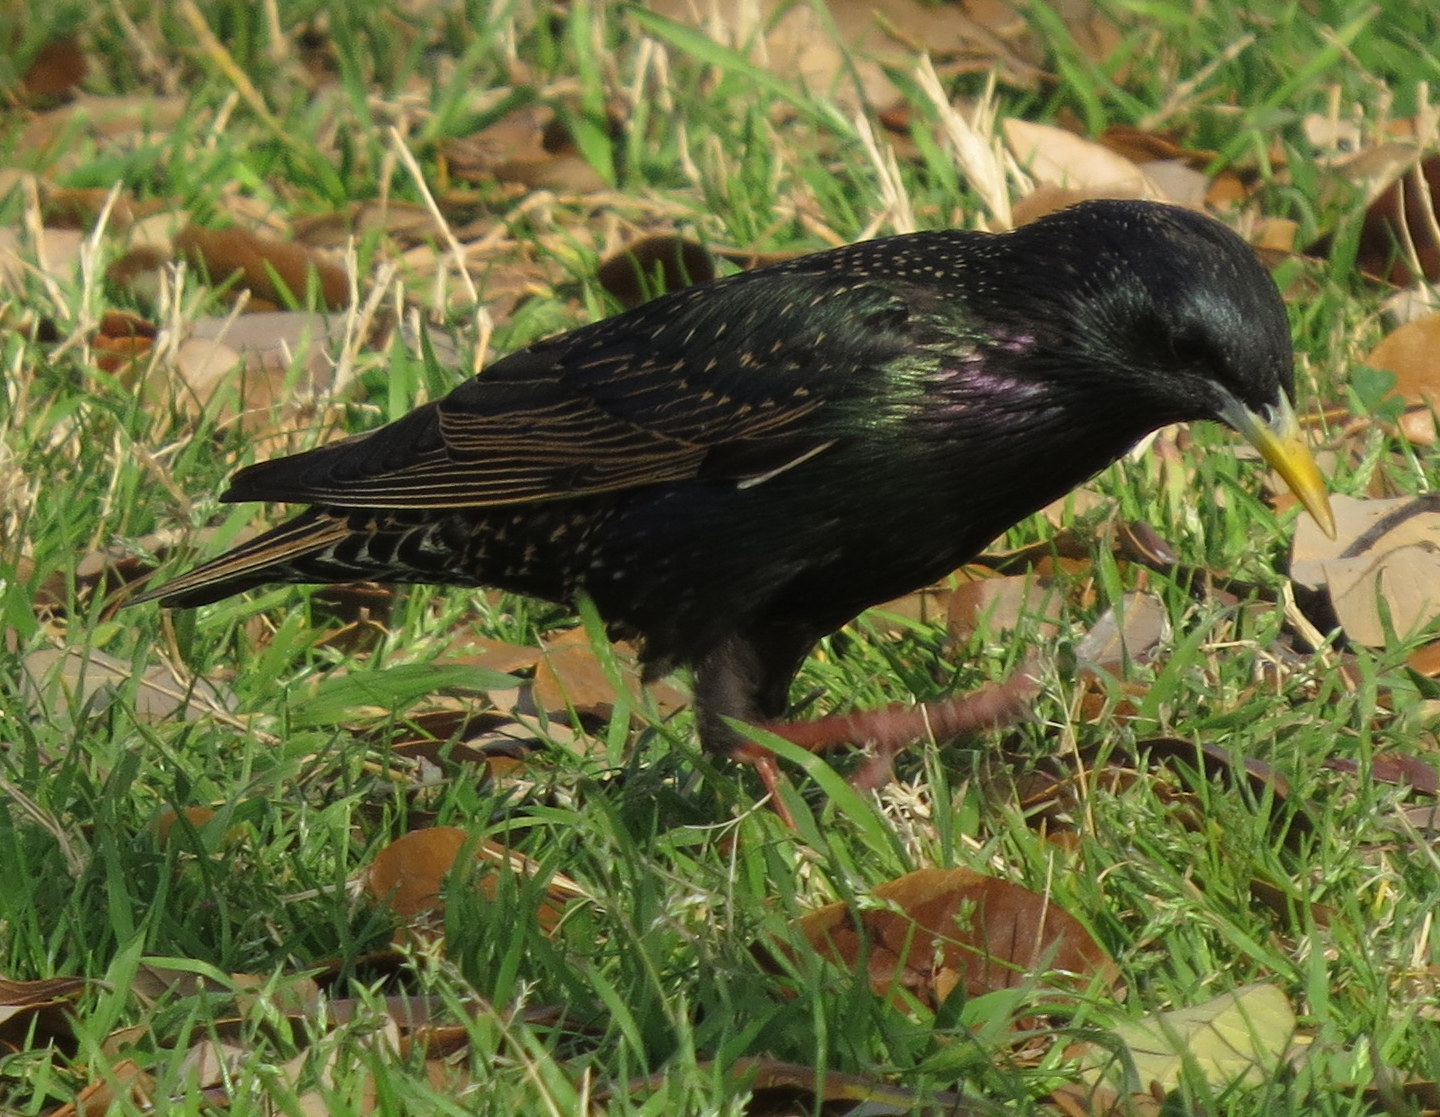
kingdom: Animalia
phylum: Chordata
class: Aves
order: Passeriformes
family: Sturnidae
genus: Sturnus
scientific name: Sturnus vulgaris
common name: Common starling
